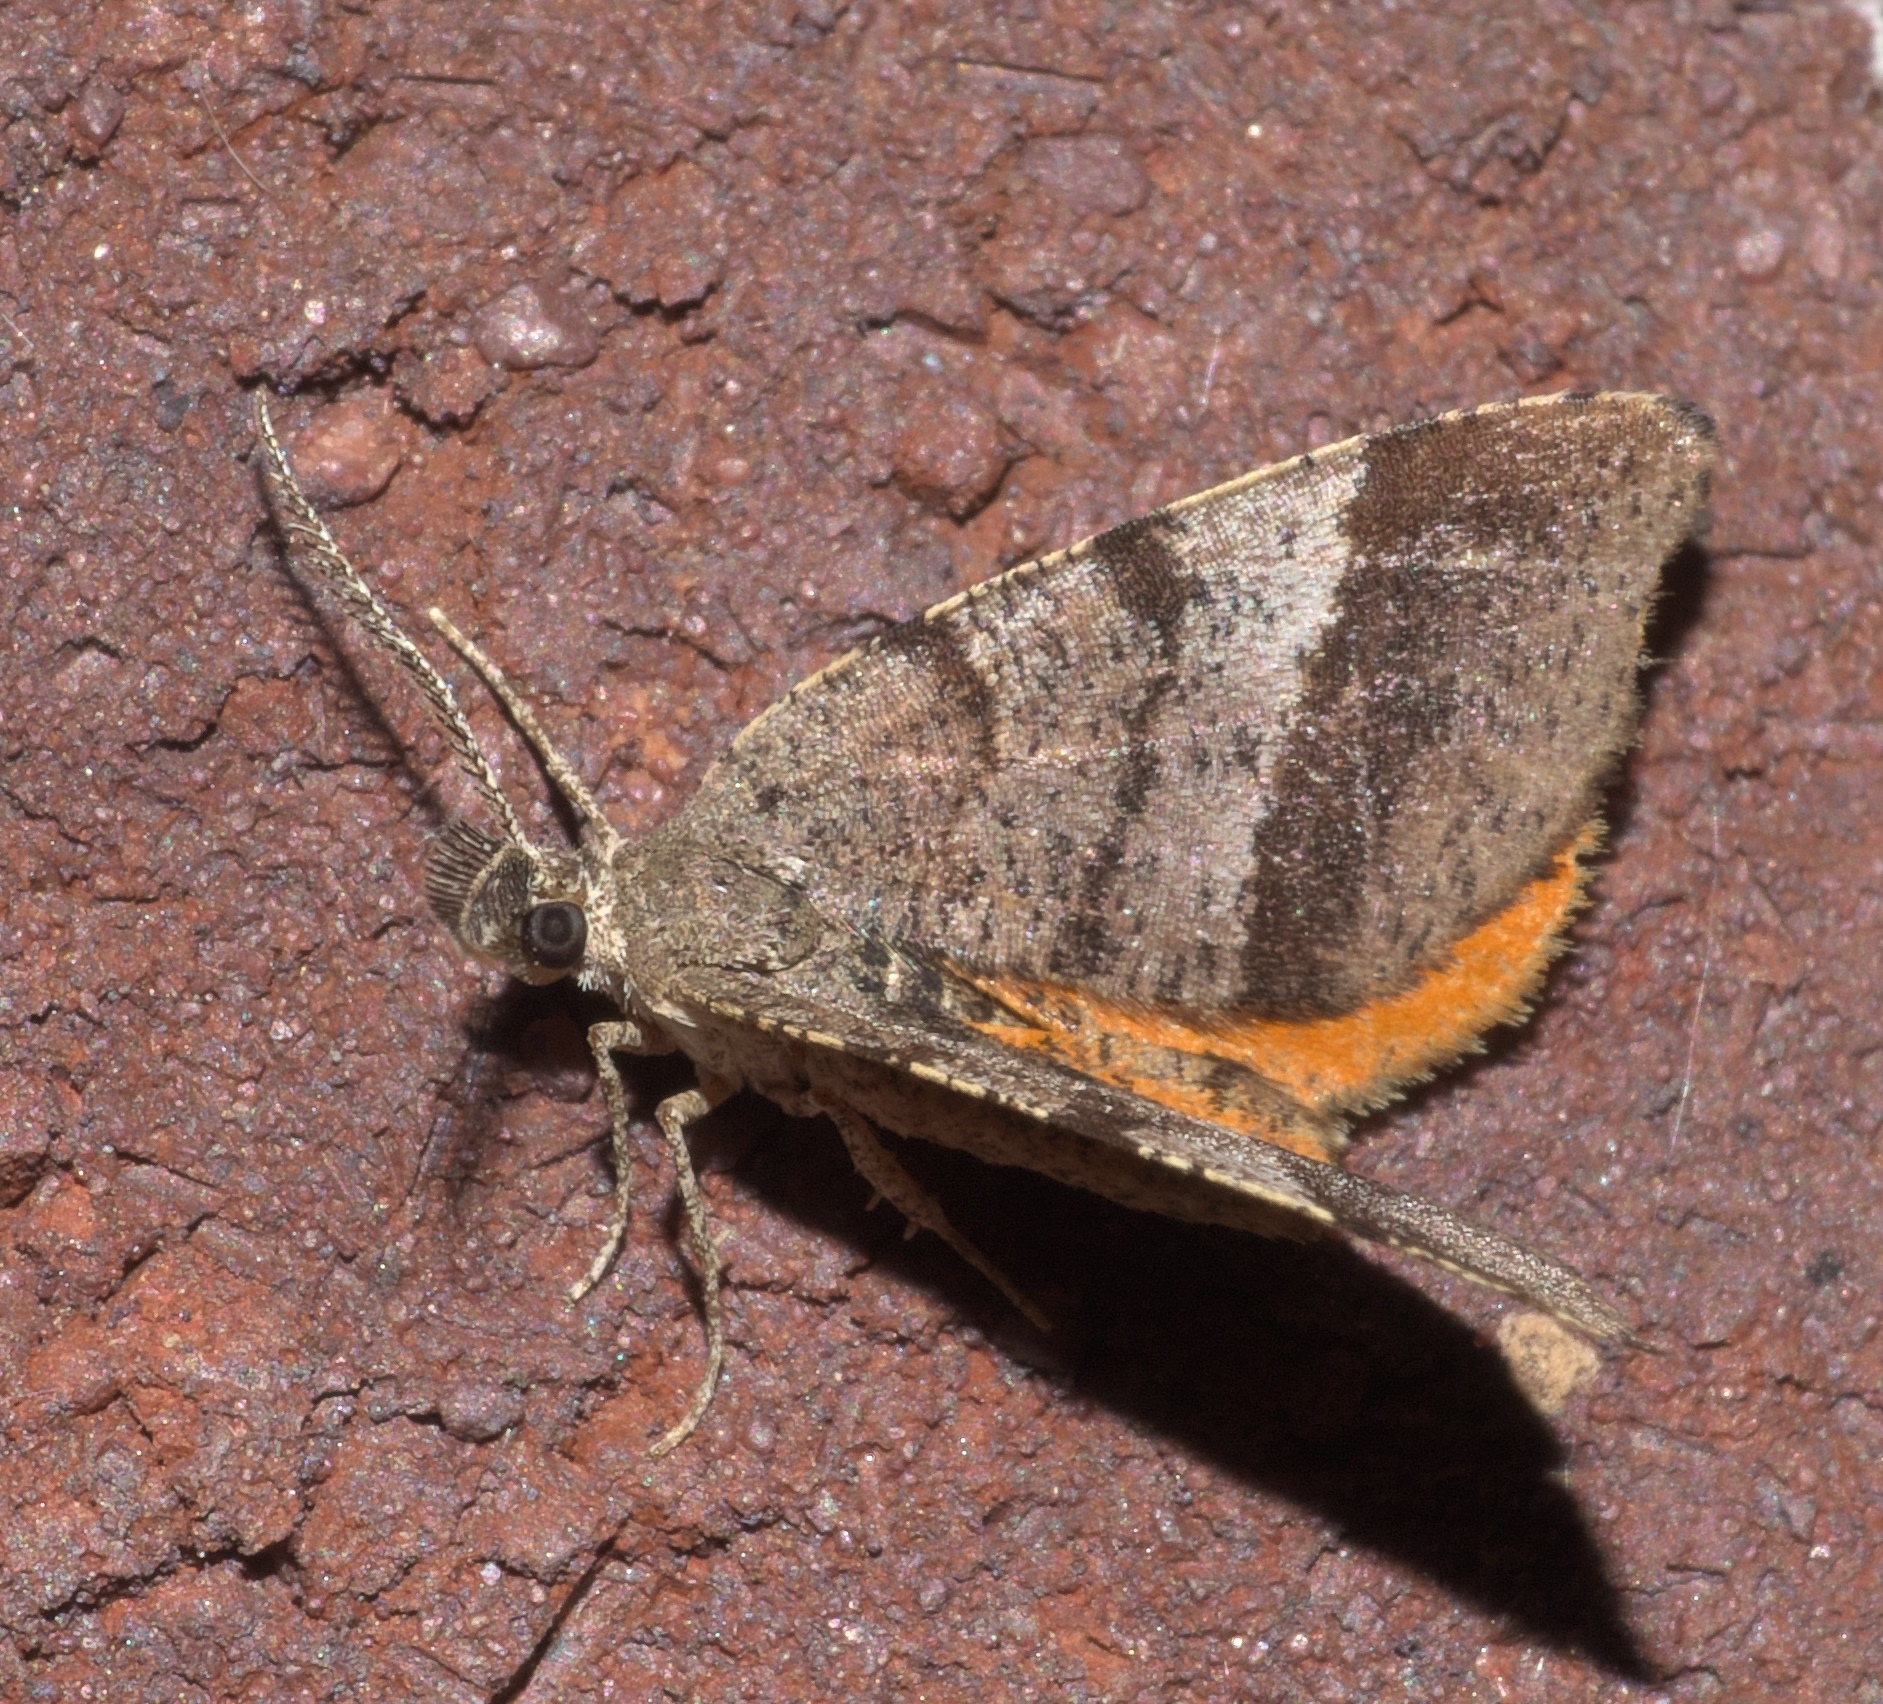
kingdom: Animalia
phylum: Arthropoda
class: Insecta
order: Lepidoptera
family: Geometridae
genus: Mellilla
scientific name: Mellilla xanthometata
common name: Orange wing moth
